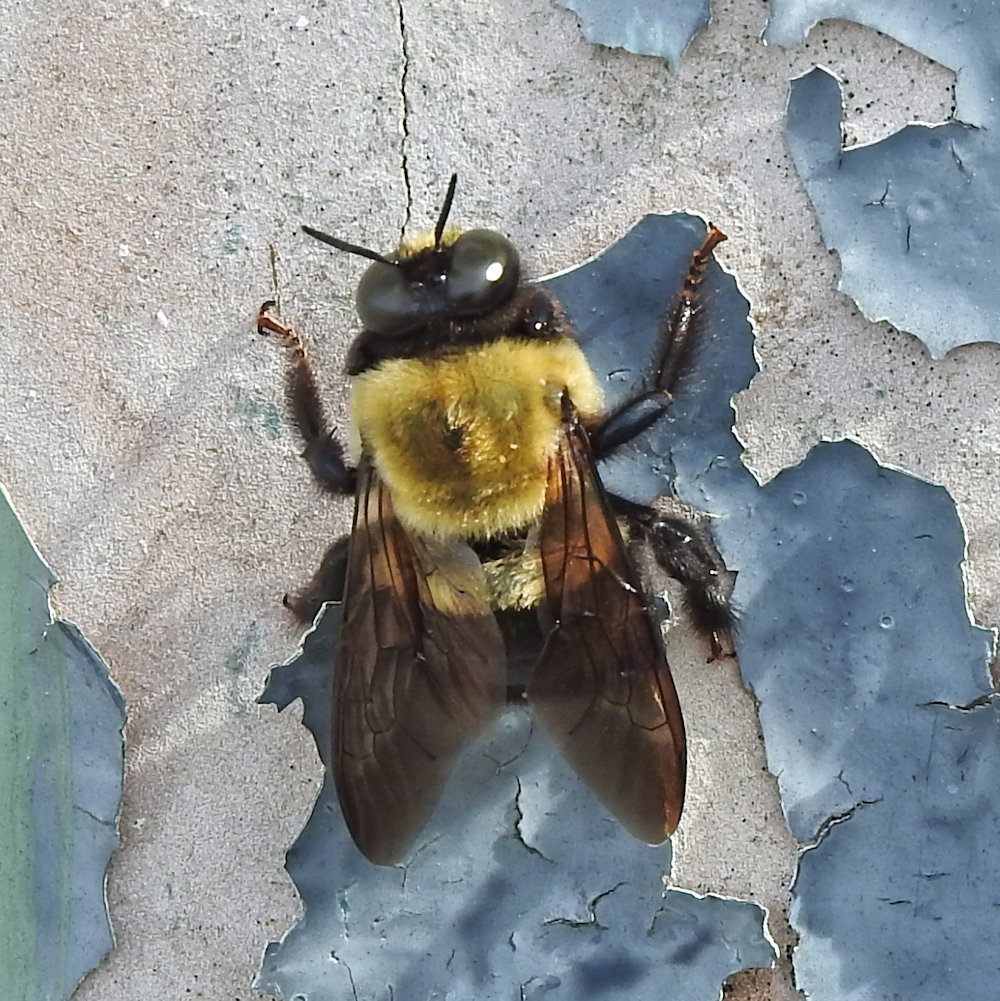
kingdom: Animalia
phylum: Arthropoda
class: Insecta
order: Hymenoptera
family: Apidae
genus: Xylocopa
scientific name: Xylocopa virginica
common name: Carpenter bee
